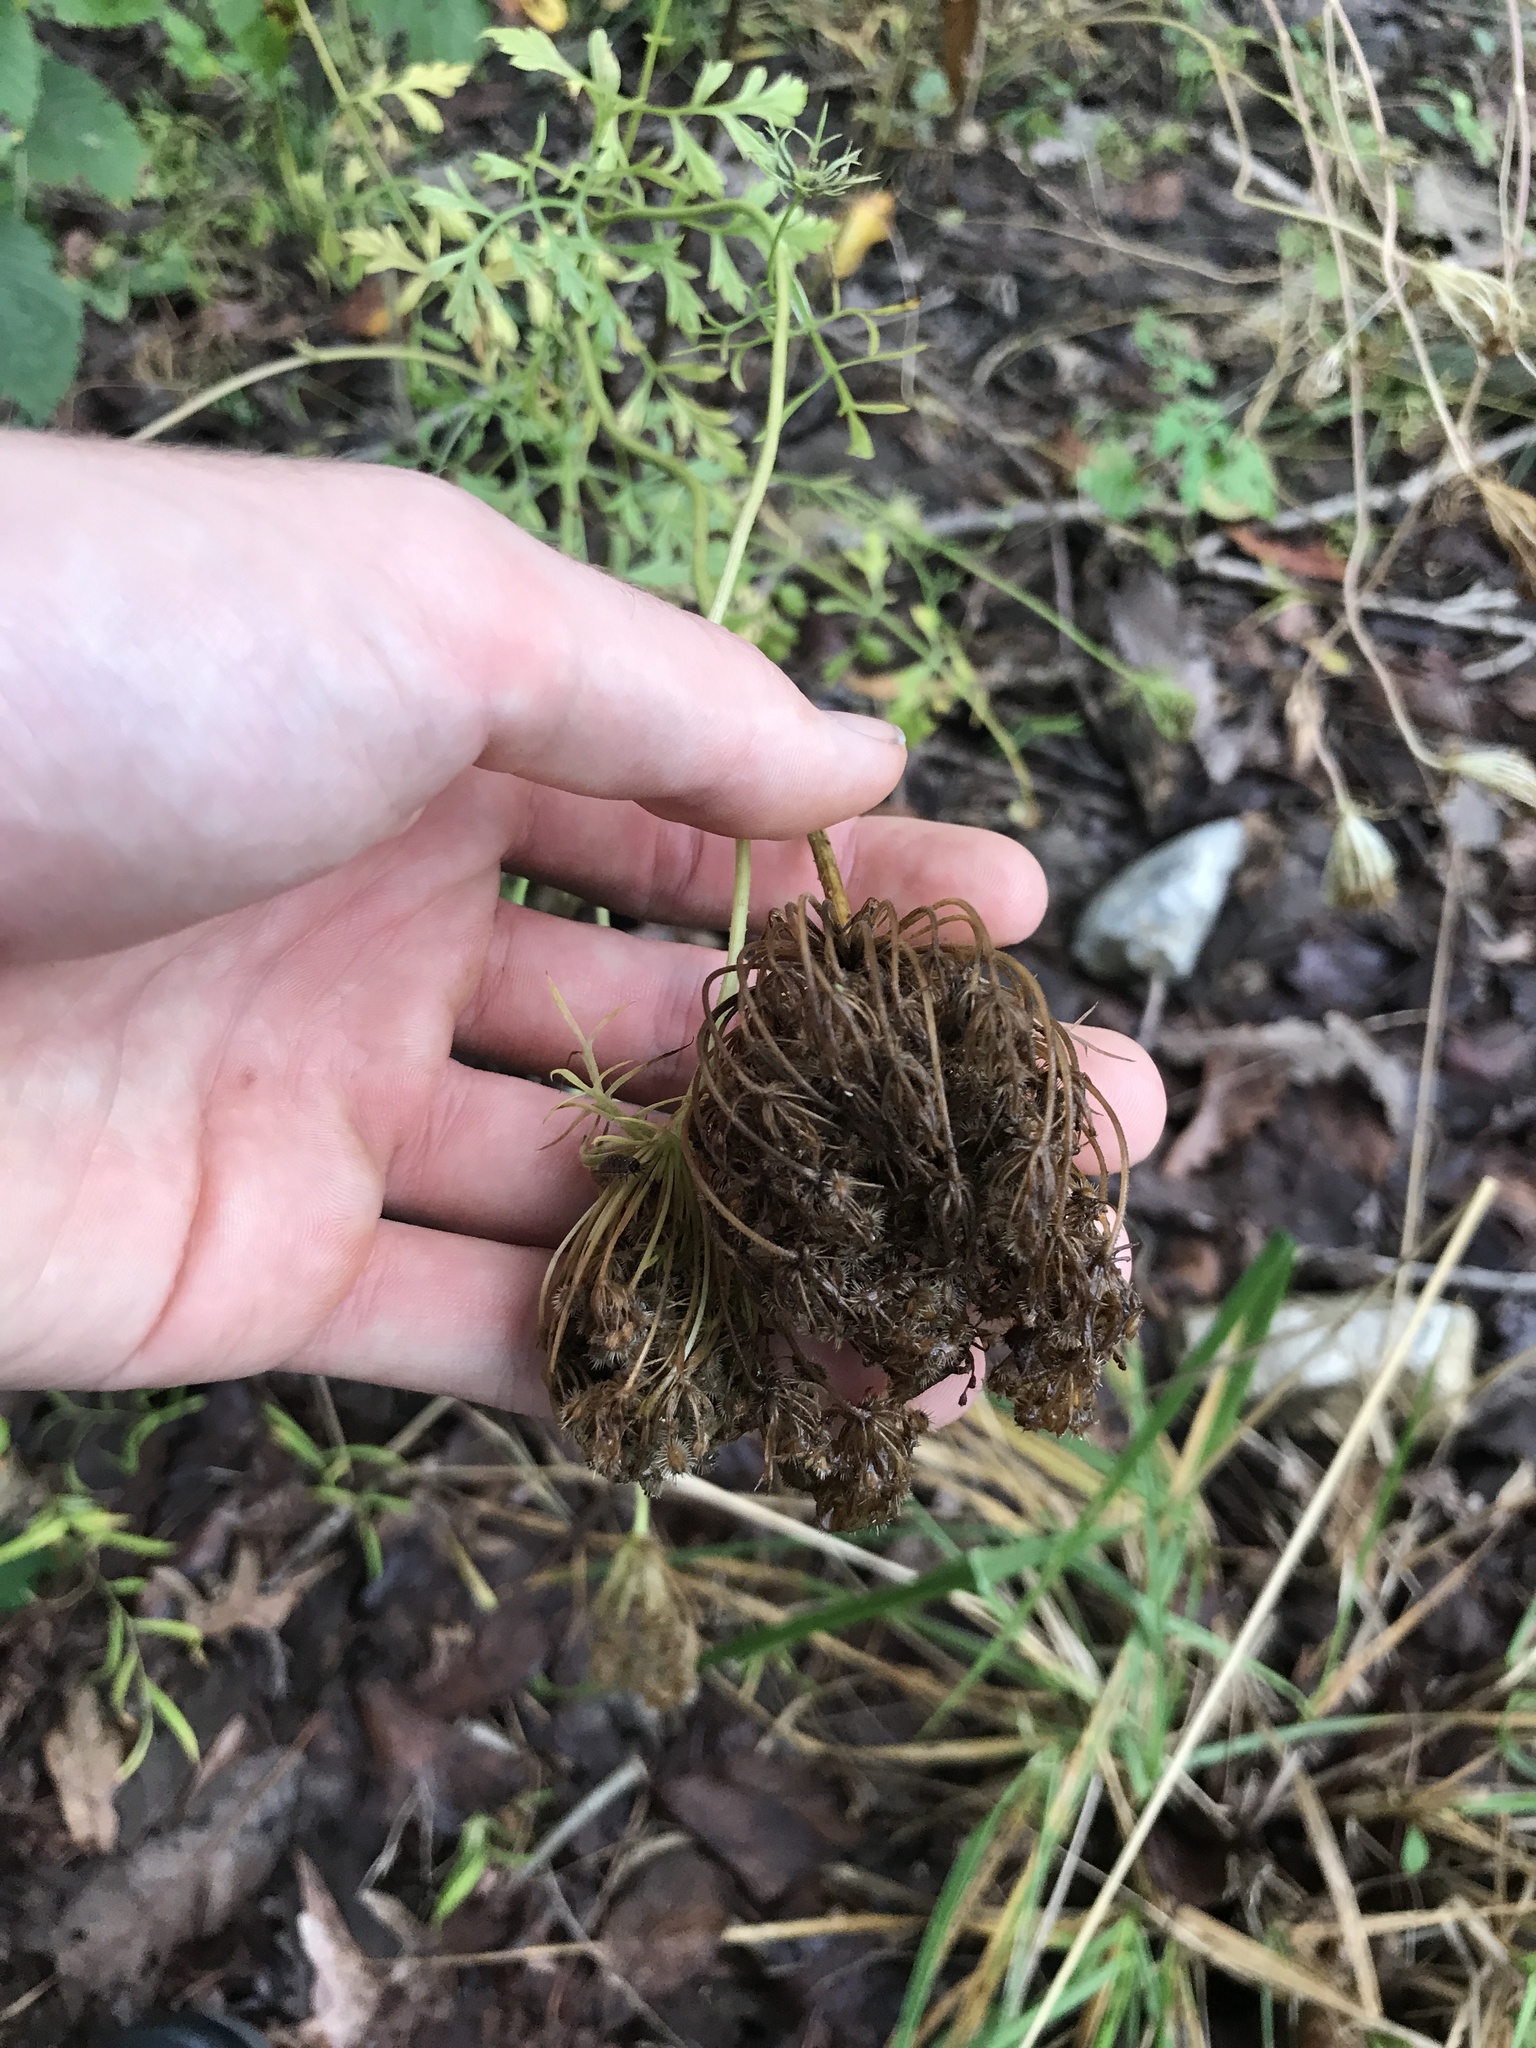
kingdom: Plantae
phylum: Tracheophyta
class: Magnoliopsida
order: Apiales
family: Apiaceae
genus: Daucus
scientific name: Daucus carota
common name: Wild carrot
